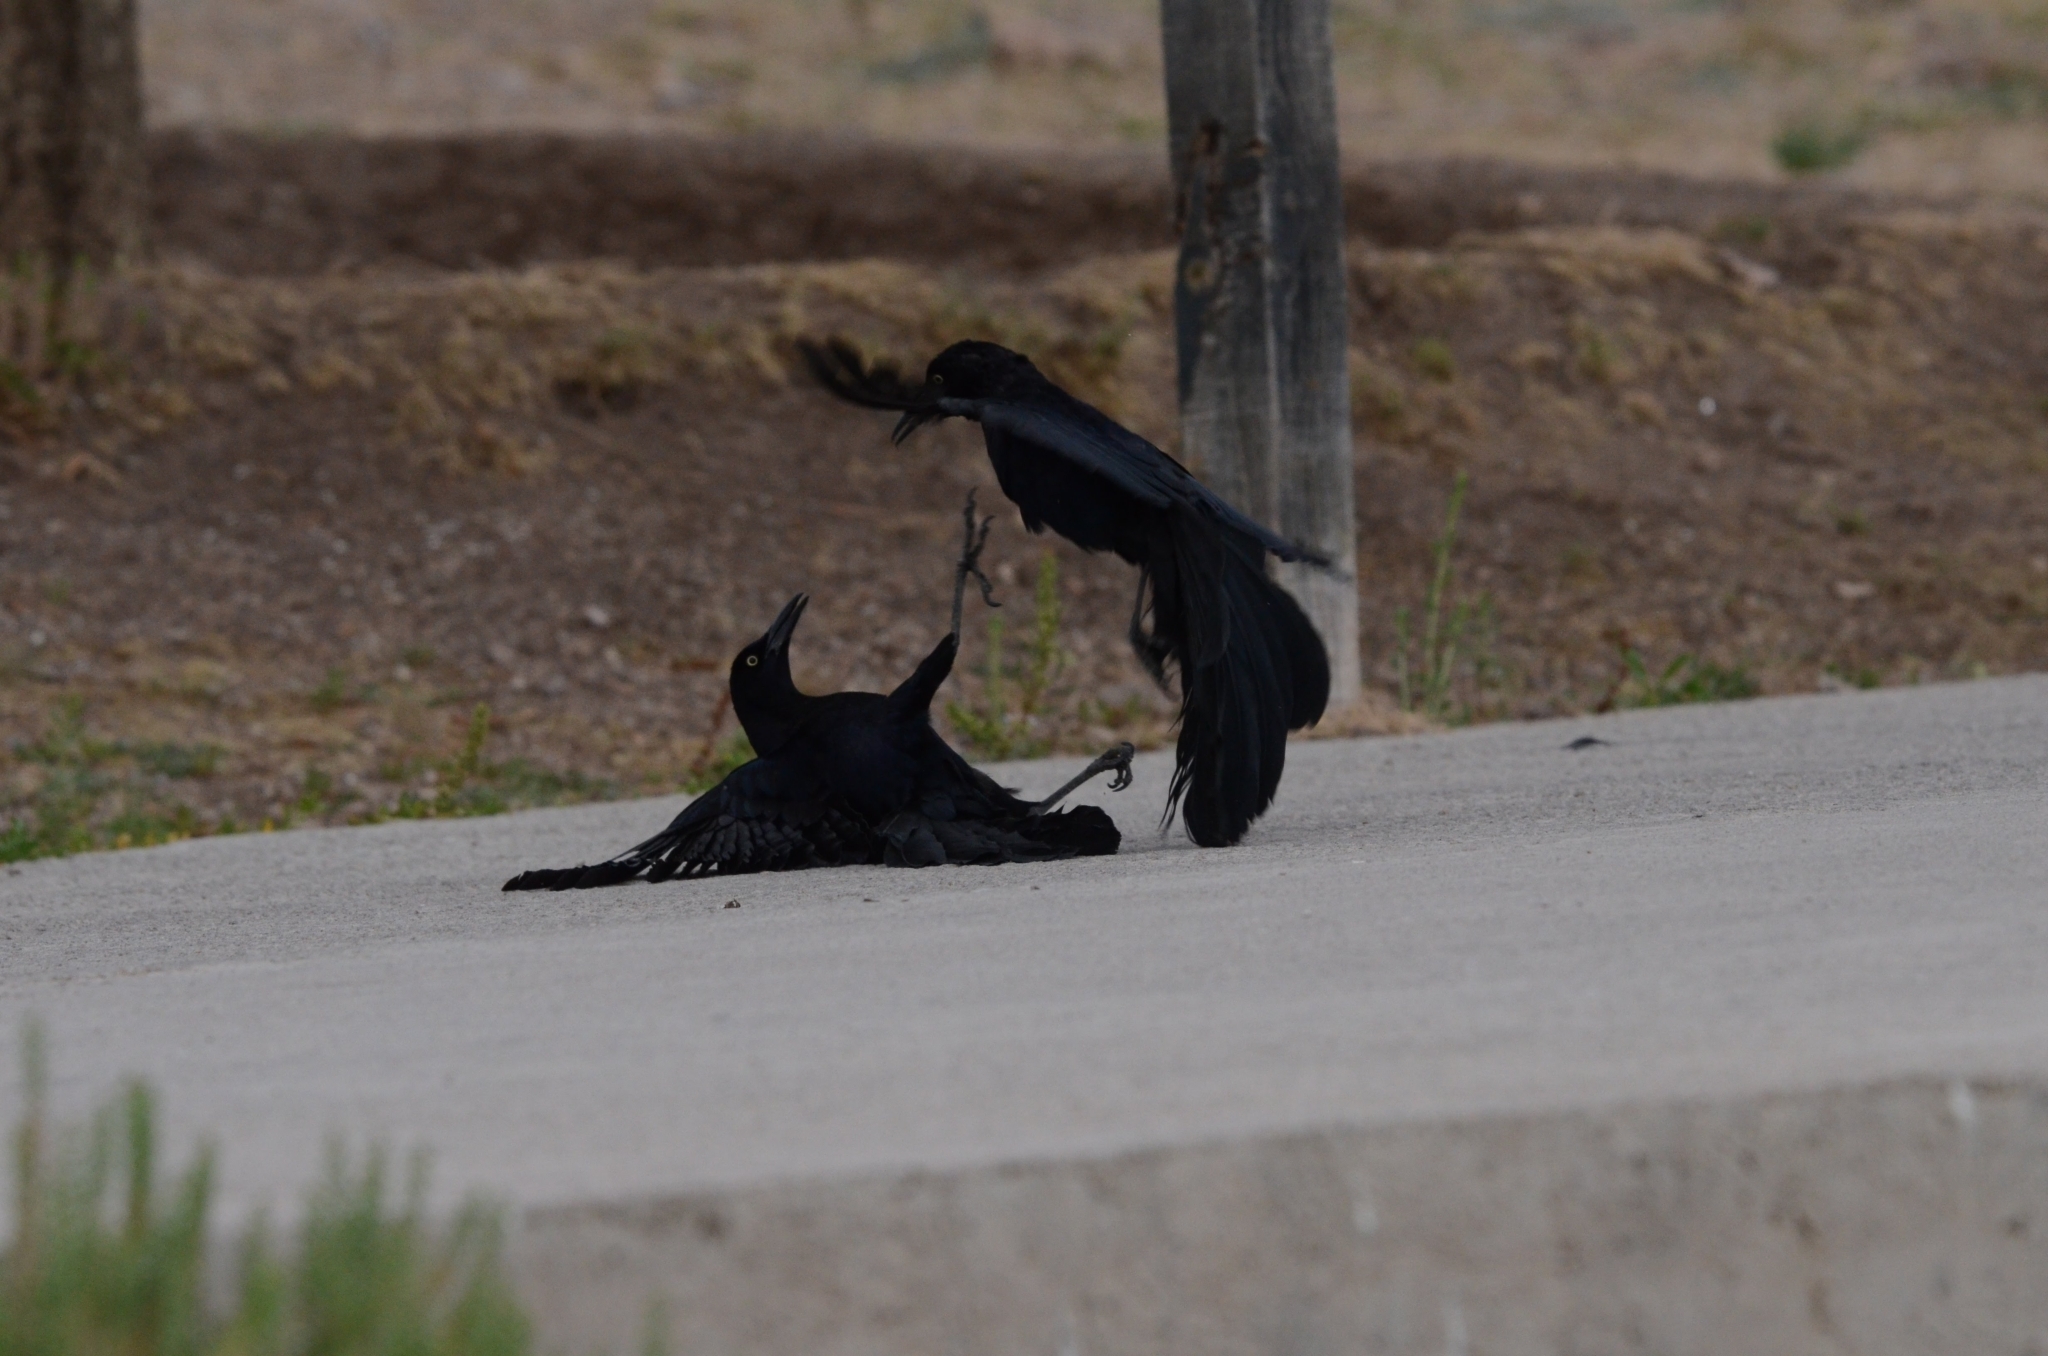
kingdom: Animalia
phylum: Chordata
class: Aves
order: Passeriformes
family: Icteridae
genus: Quiscalus
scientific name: Quiscalus mexicanus
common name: Great-tailed grackle
